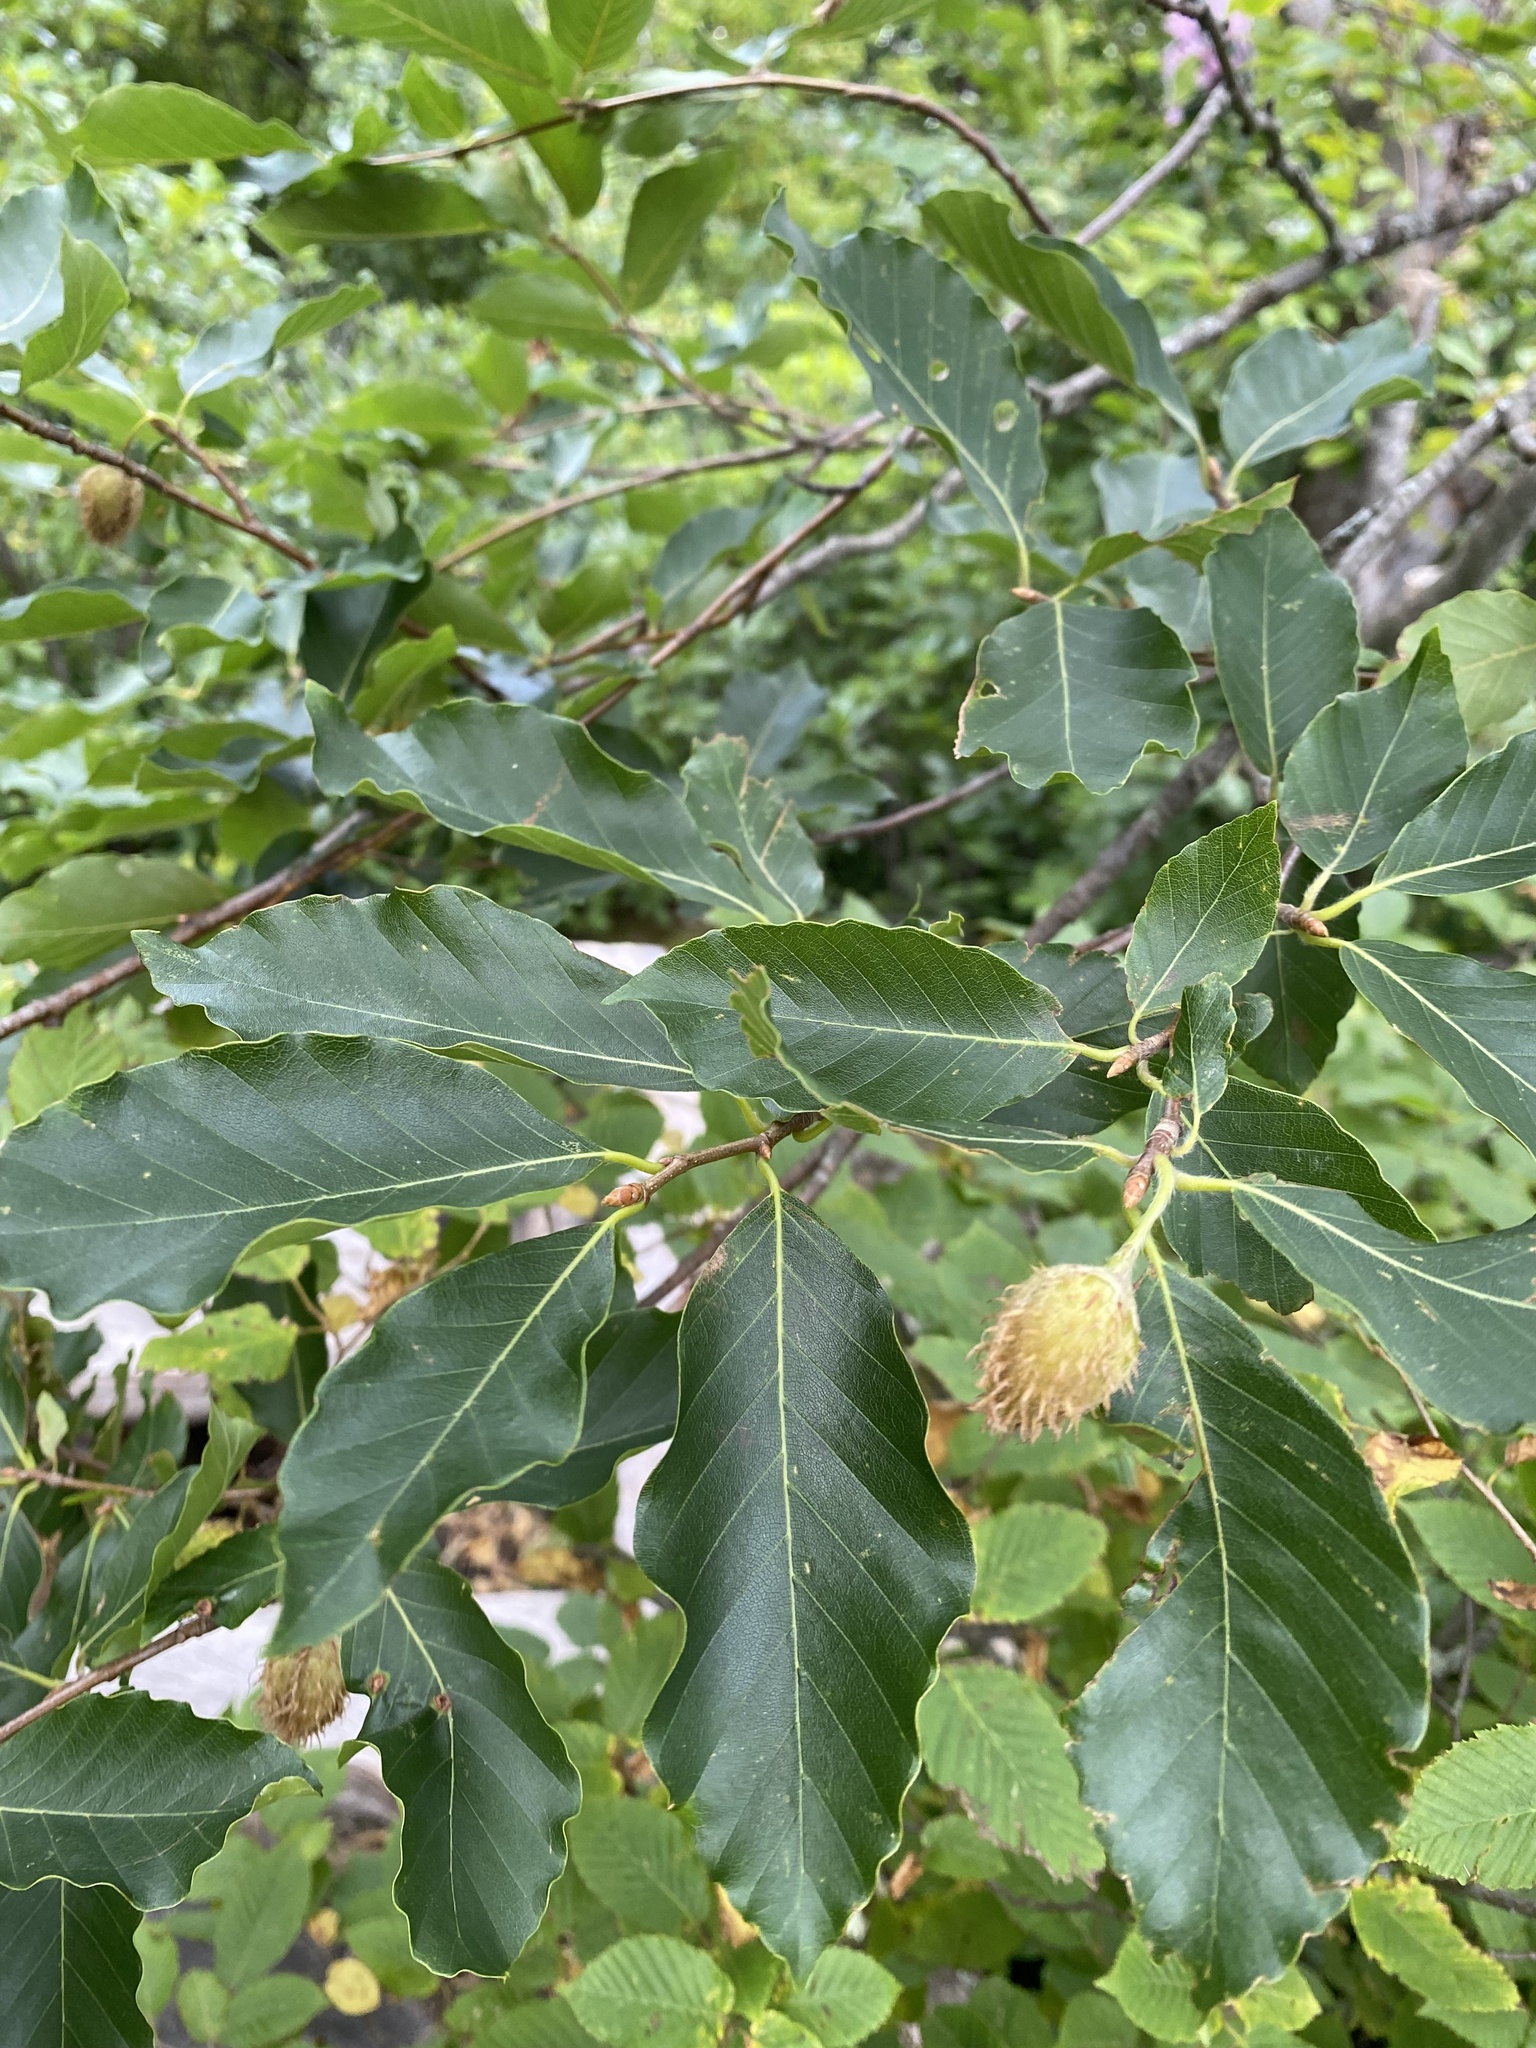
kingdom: Plantae
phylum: Tracheophyta
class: Magnoliopsida
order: Fagales
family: Fagaceae
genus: Fagus
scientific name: Fagus orientalis
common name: Oriental beech
